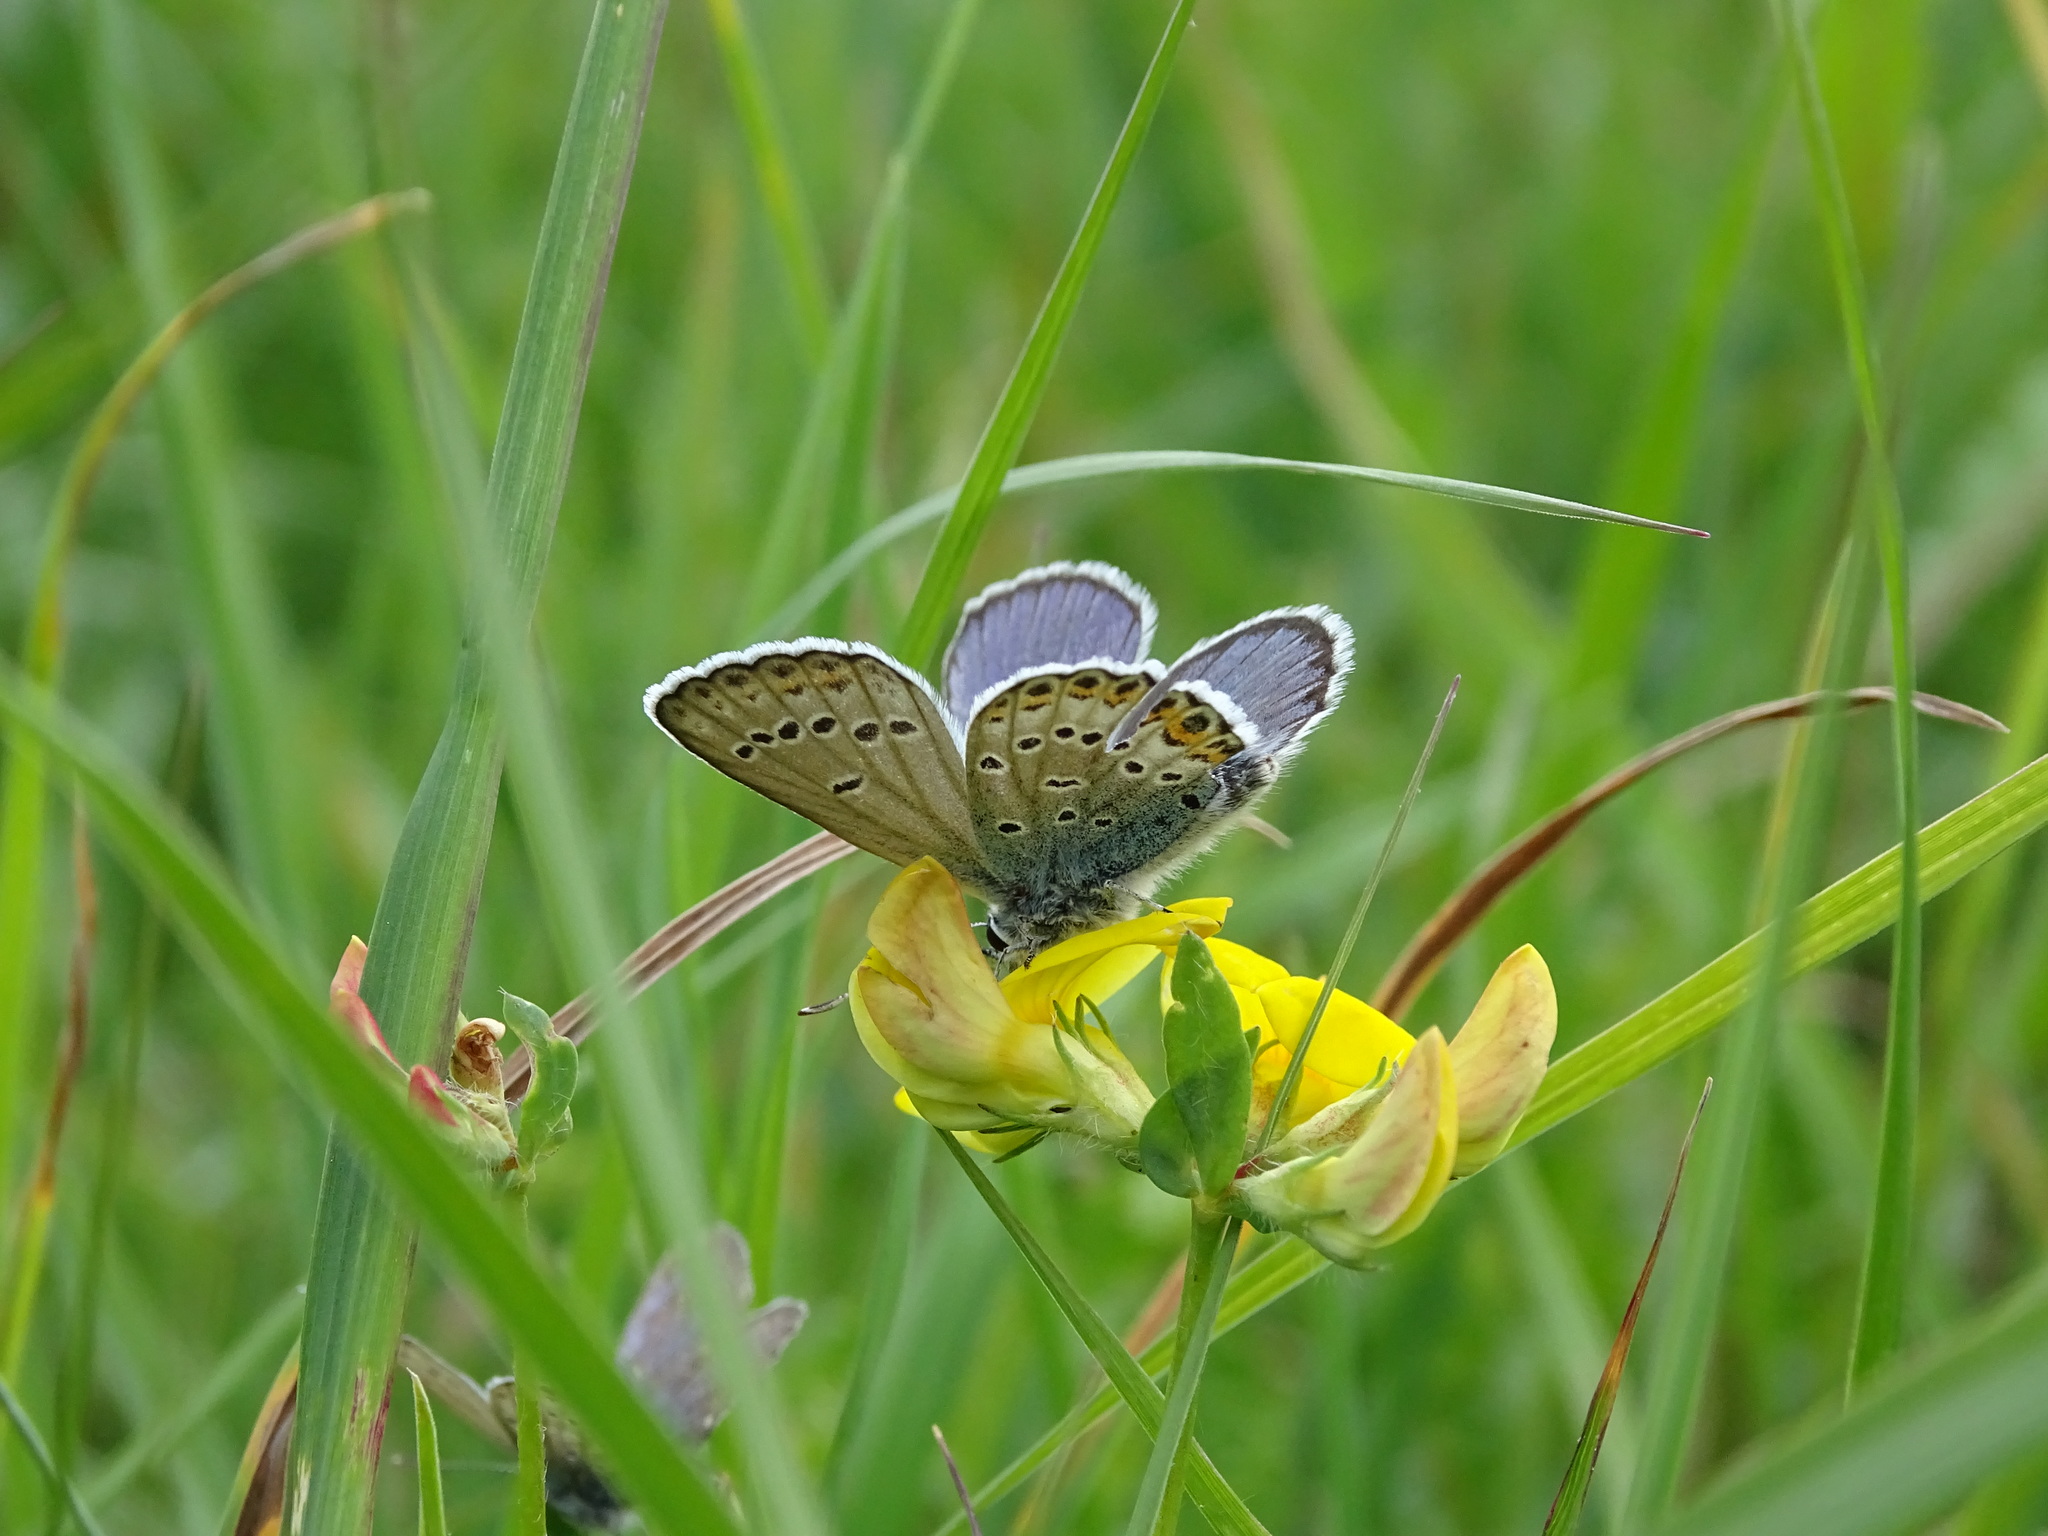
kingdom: Animalia
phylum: Arthropoda
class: Insecta
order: Lepidoptera
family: Lycaenidae
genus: Lycaeides
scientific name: Lycaeides idas
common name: Northern blue
